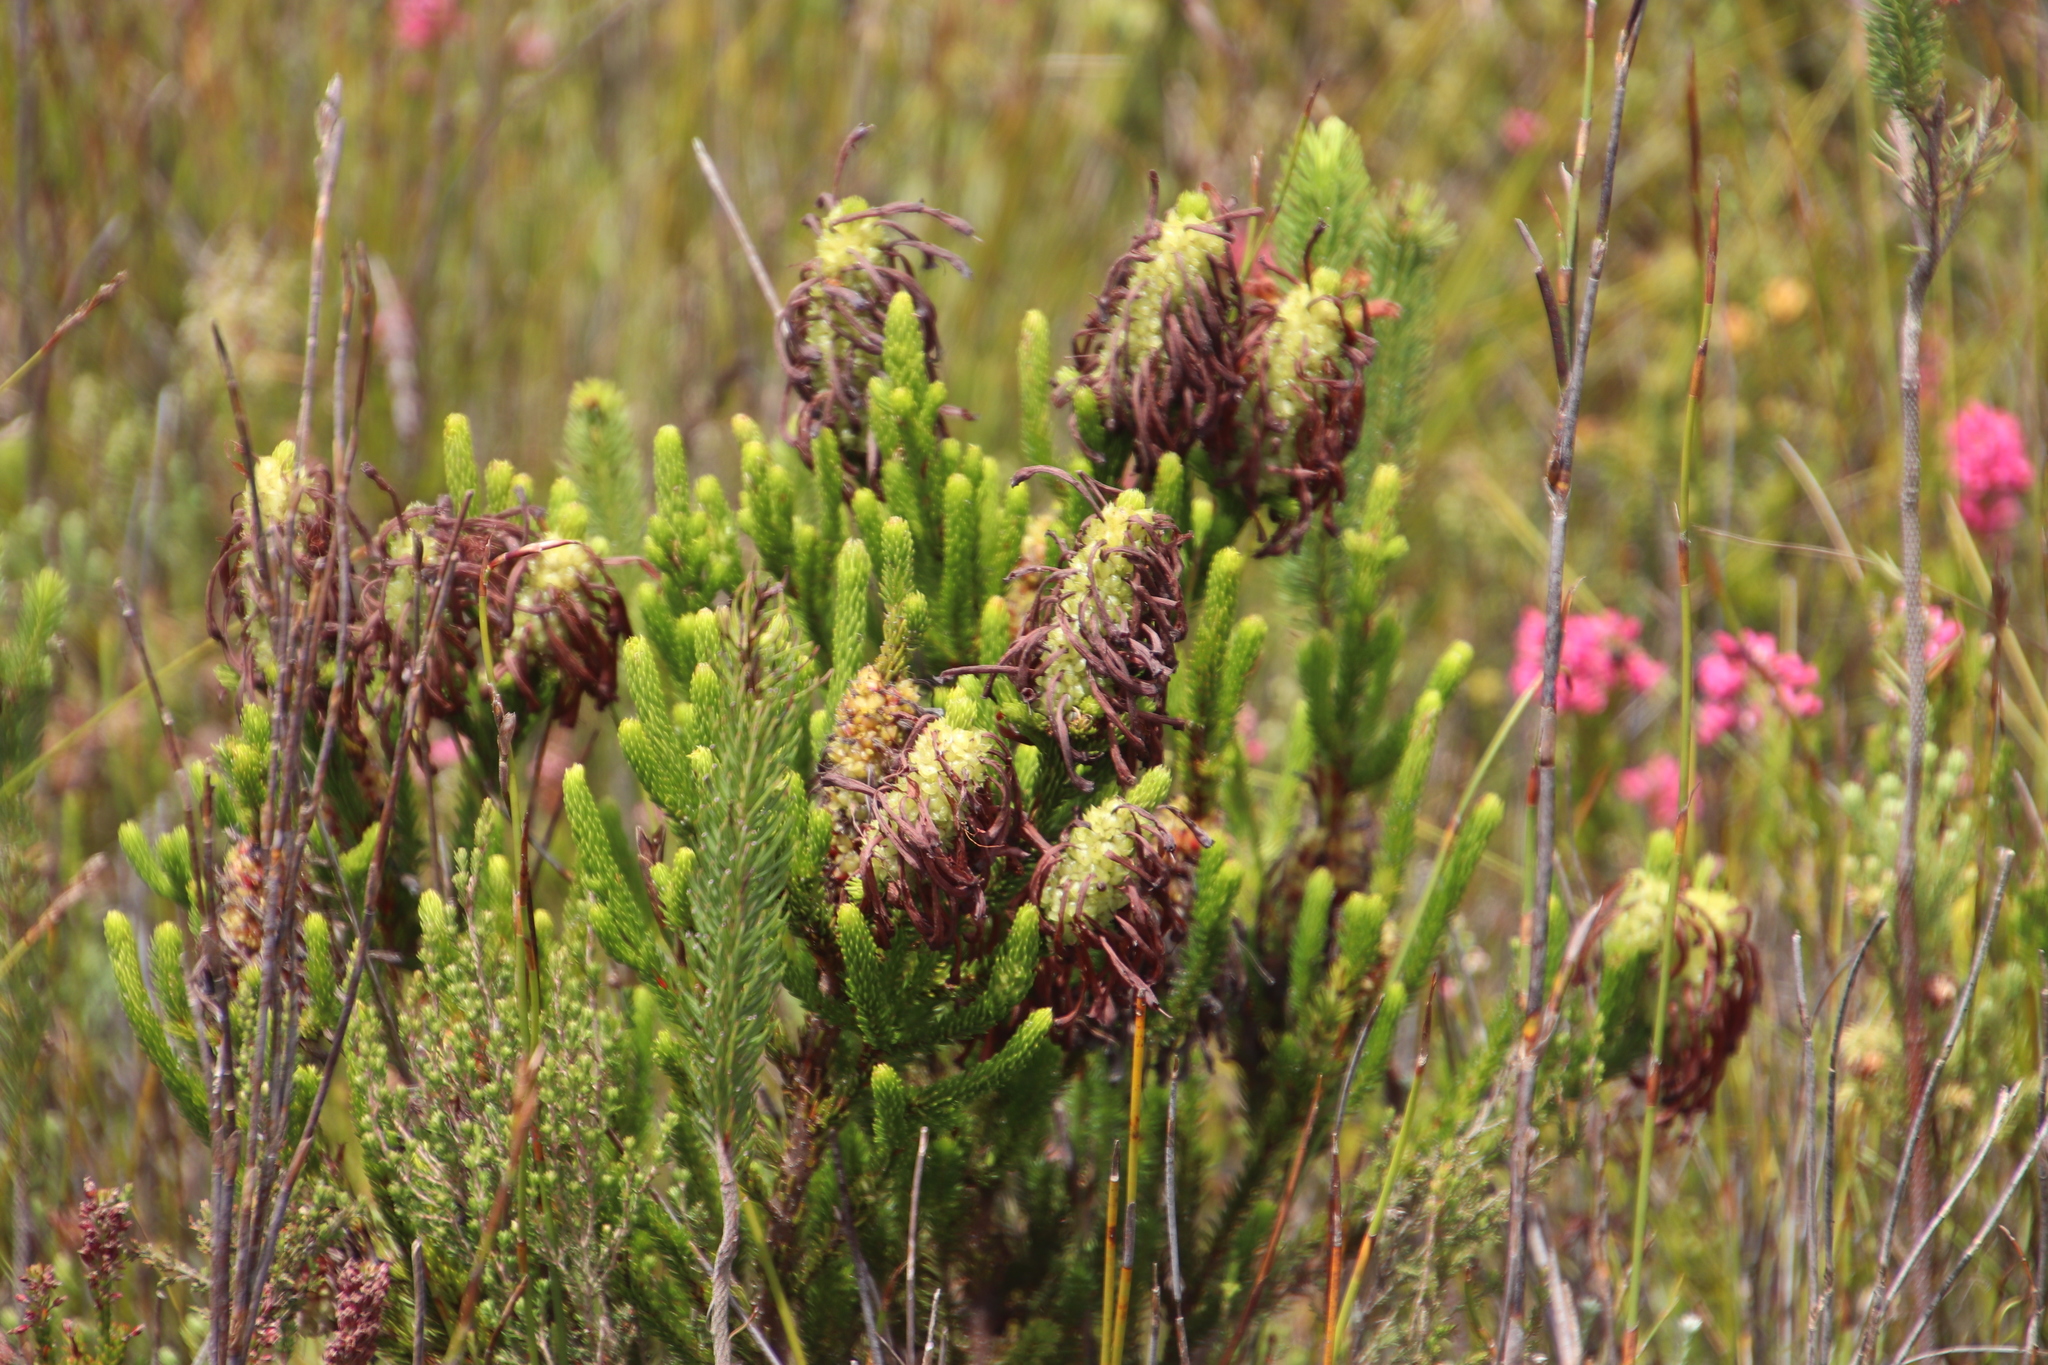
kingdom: Plantae
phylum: Tracheophyta
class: Magnoliopsida
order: Ericales
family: Ericaceae
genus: Erica
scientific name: Erica sessiliflora
